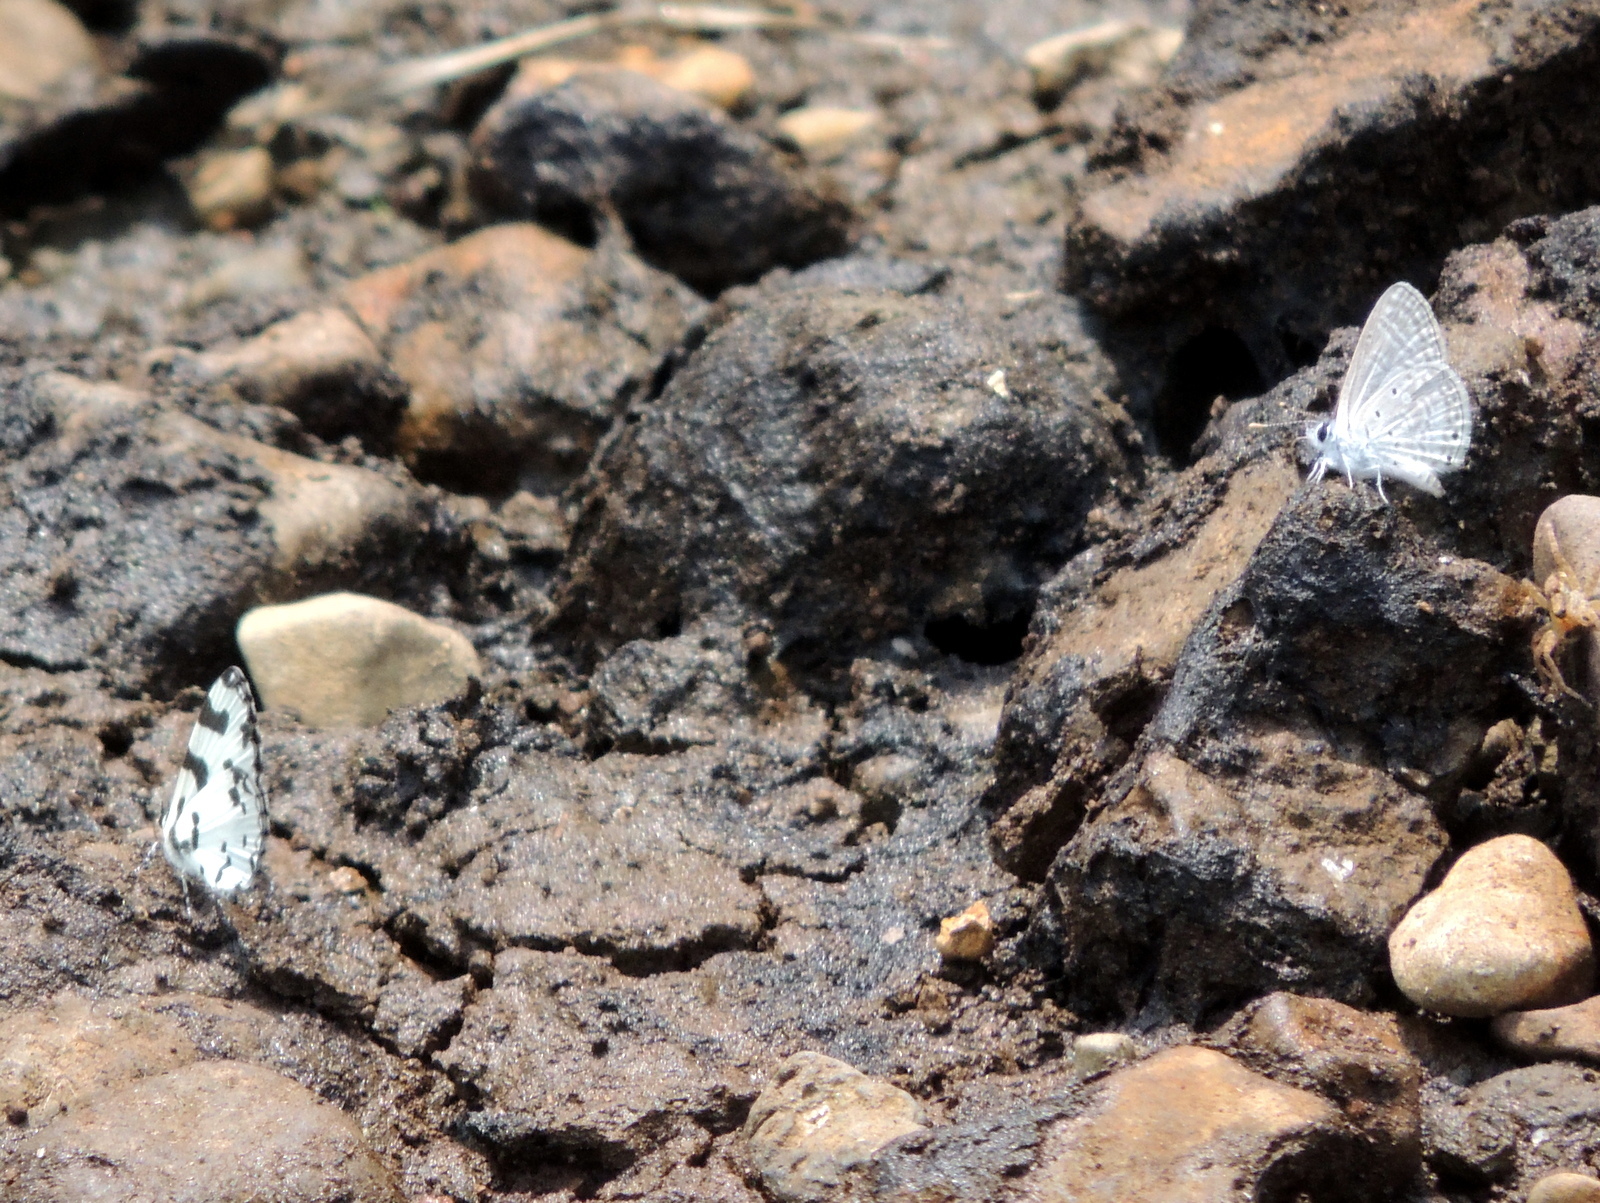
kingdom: Animalia
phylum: Arthropoda
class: Insecta
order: Lepidoptera
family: Lycaenidae
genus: Caleta
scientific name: Caleta decidia
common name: Angled pierrot
